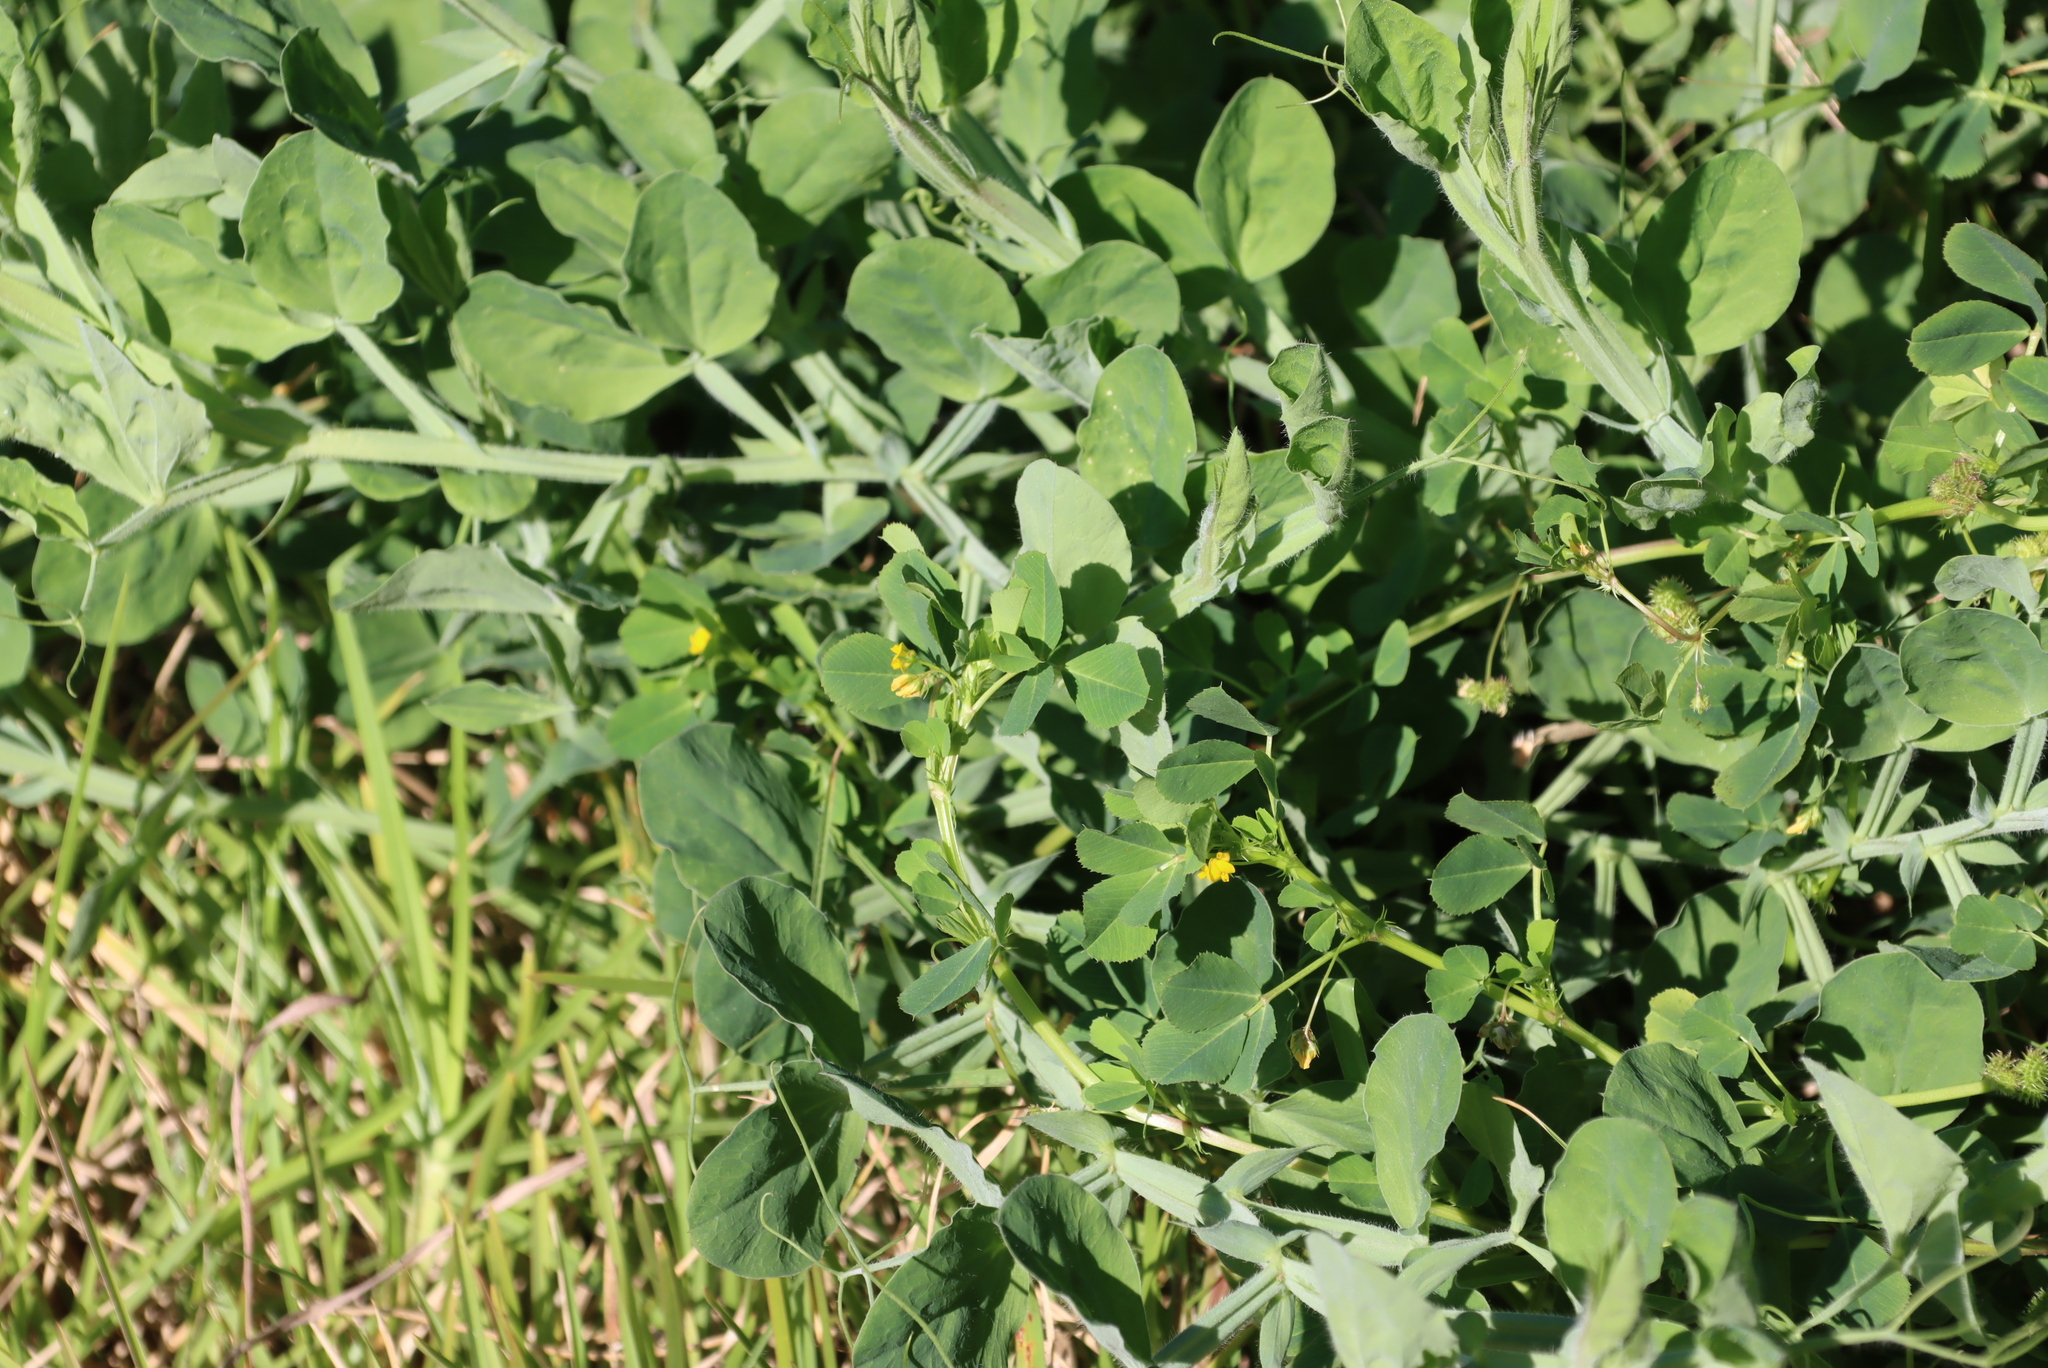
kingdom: Plantae
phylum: Tracheophyta
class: Magnoliopsida
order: Fabales
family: Fabaceae
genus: Medicago
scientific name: Medicago polymorpha
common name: Burclover
